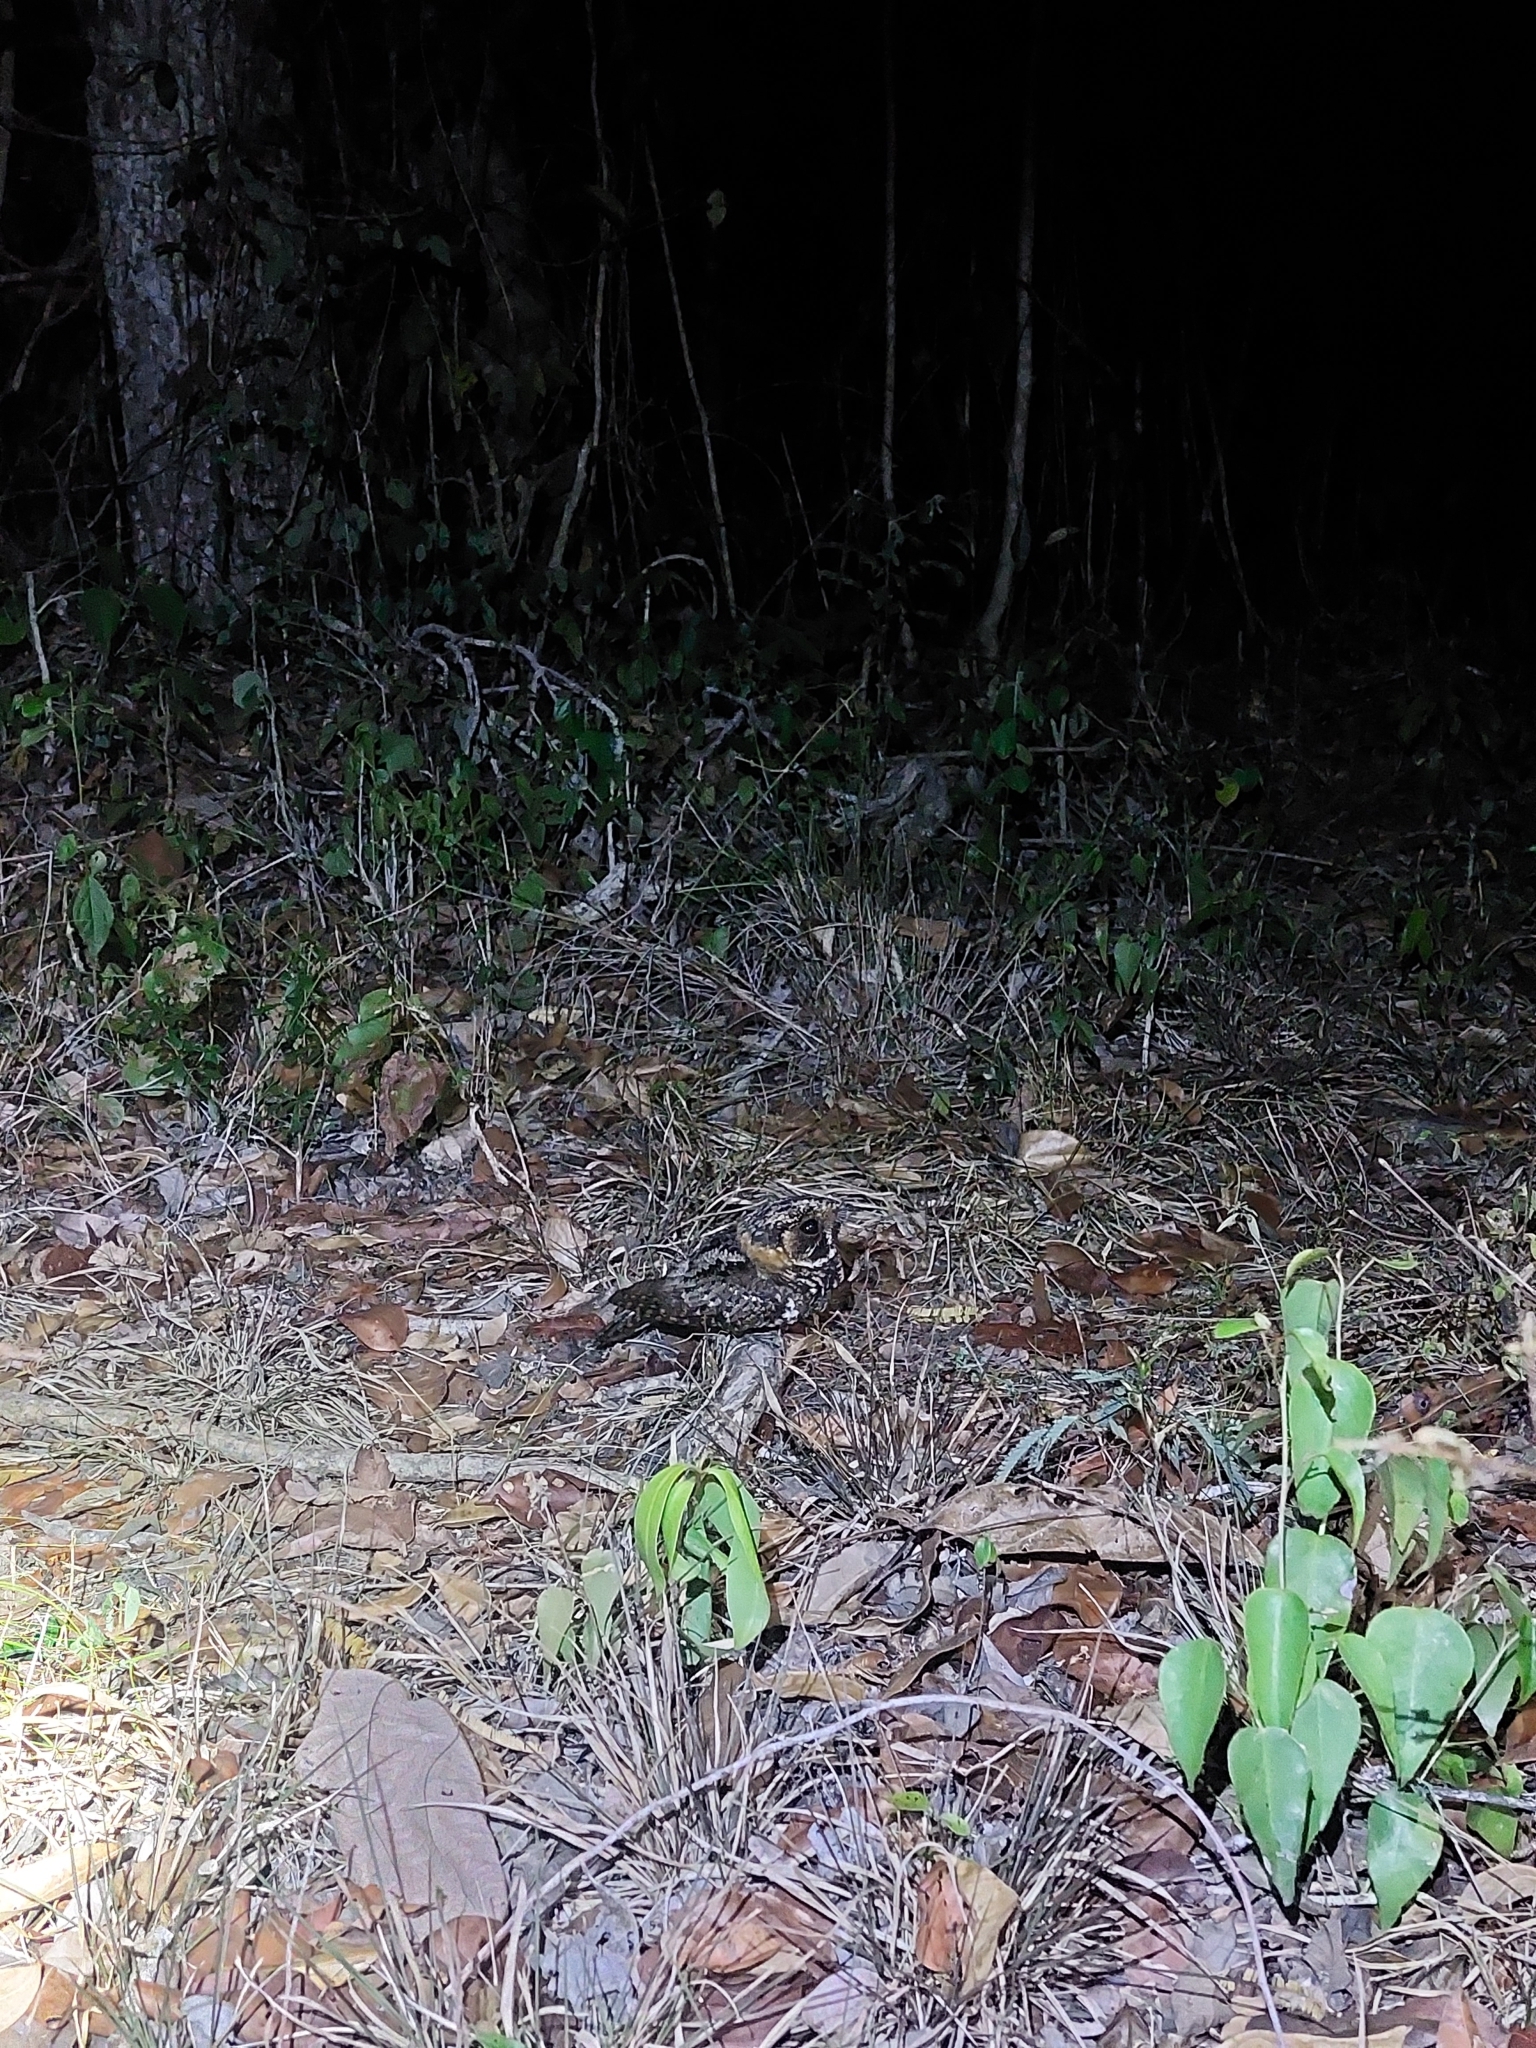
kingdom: Animalia
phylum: Chordata
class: Aves
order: Caprimulgiformes
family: Caprimulgidae
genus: Antrostomus
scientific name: Antrostomus badius
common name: Yucatan nightjar
